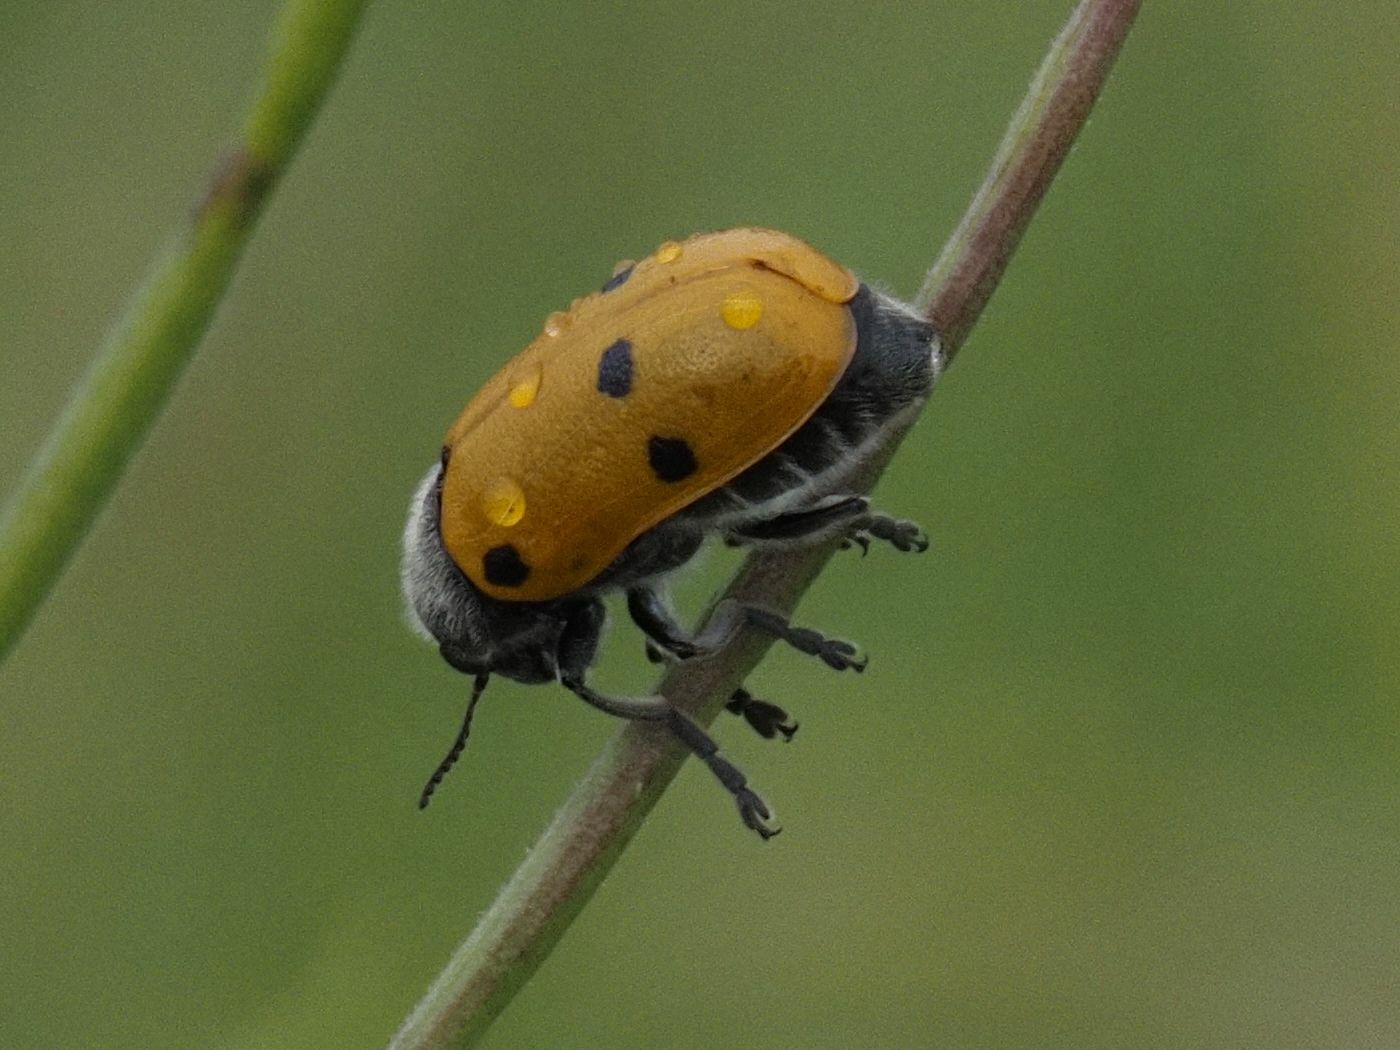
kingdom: Animalia
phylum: Arthropoda
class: Insecta
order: Coleoptera
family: Chrysomelidae
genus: Lachnaia
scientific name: Lachnaia sexpunctata
